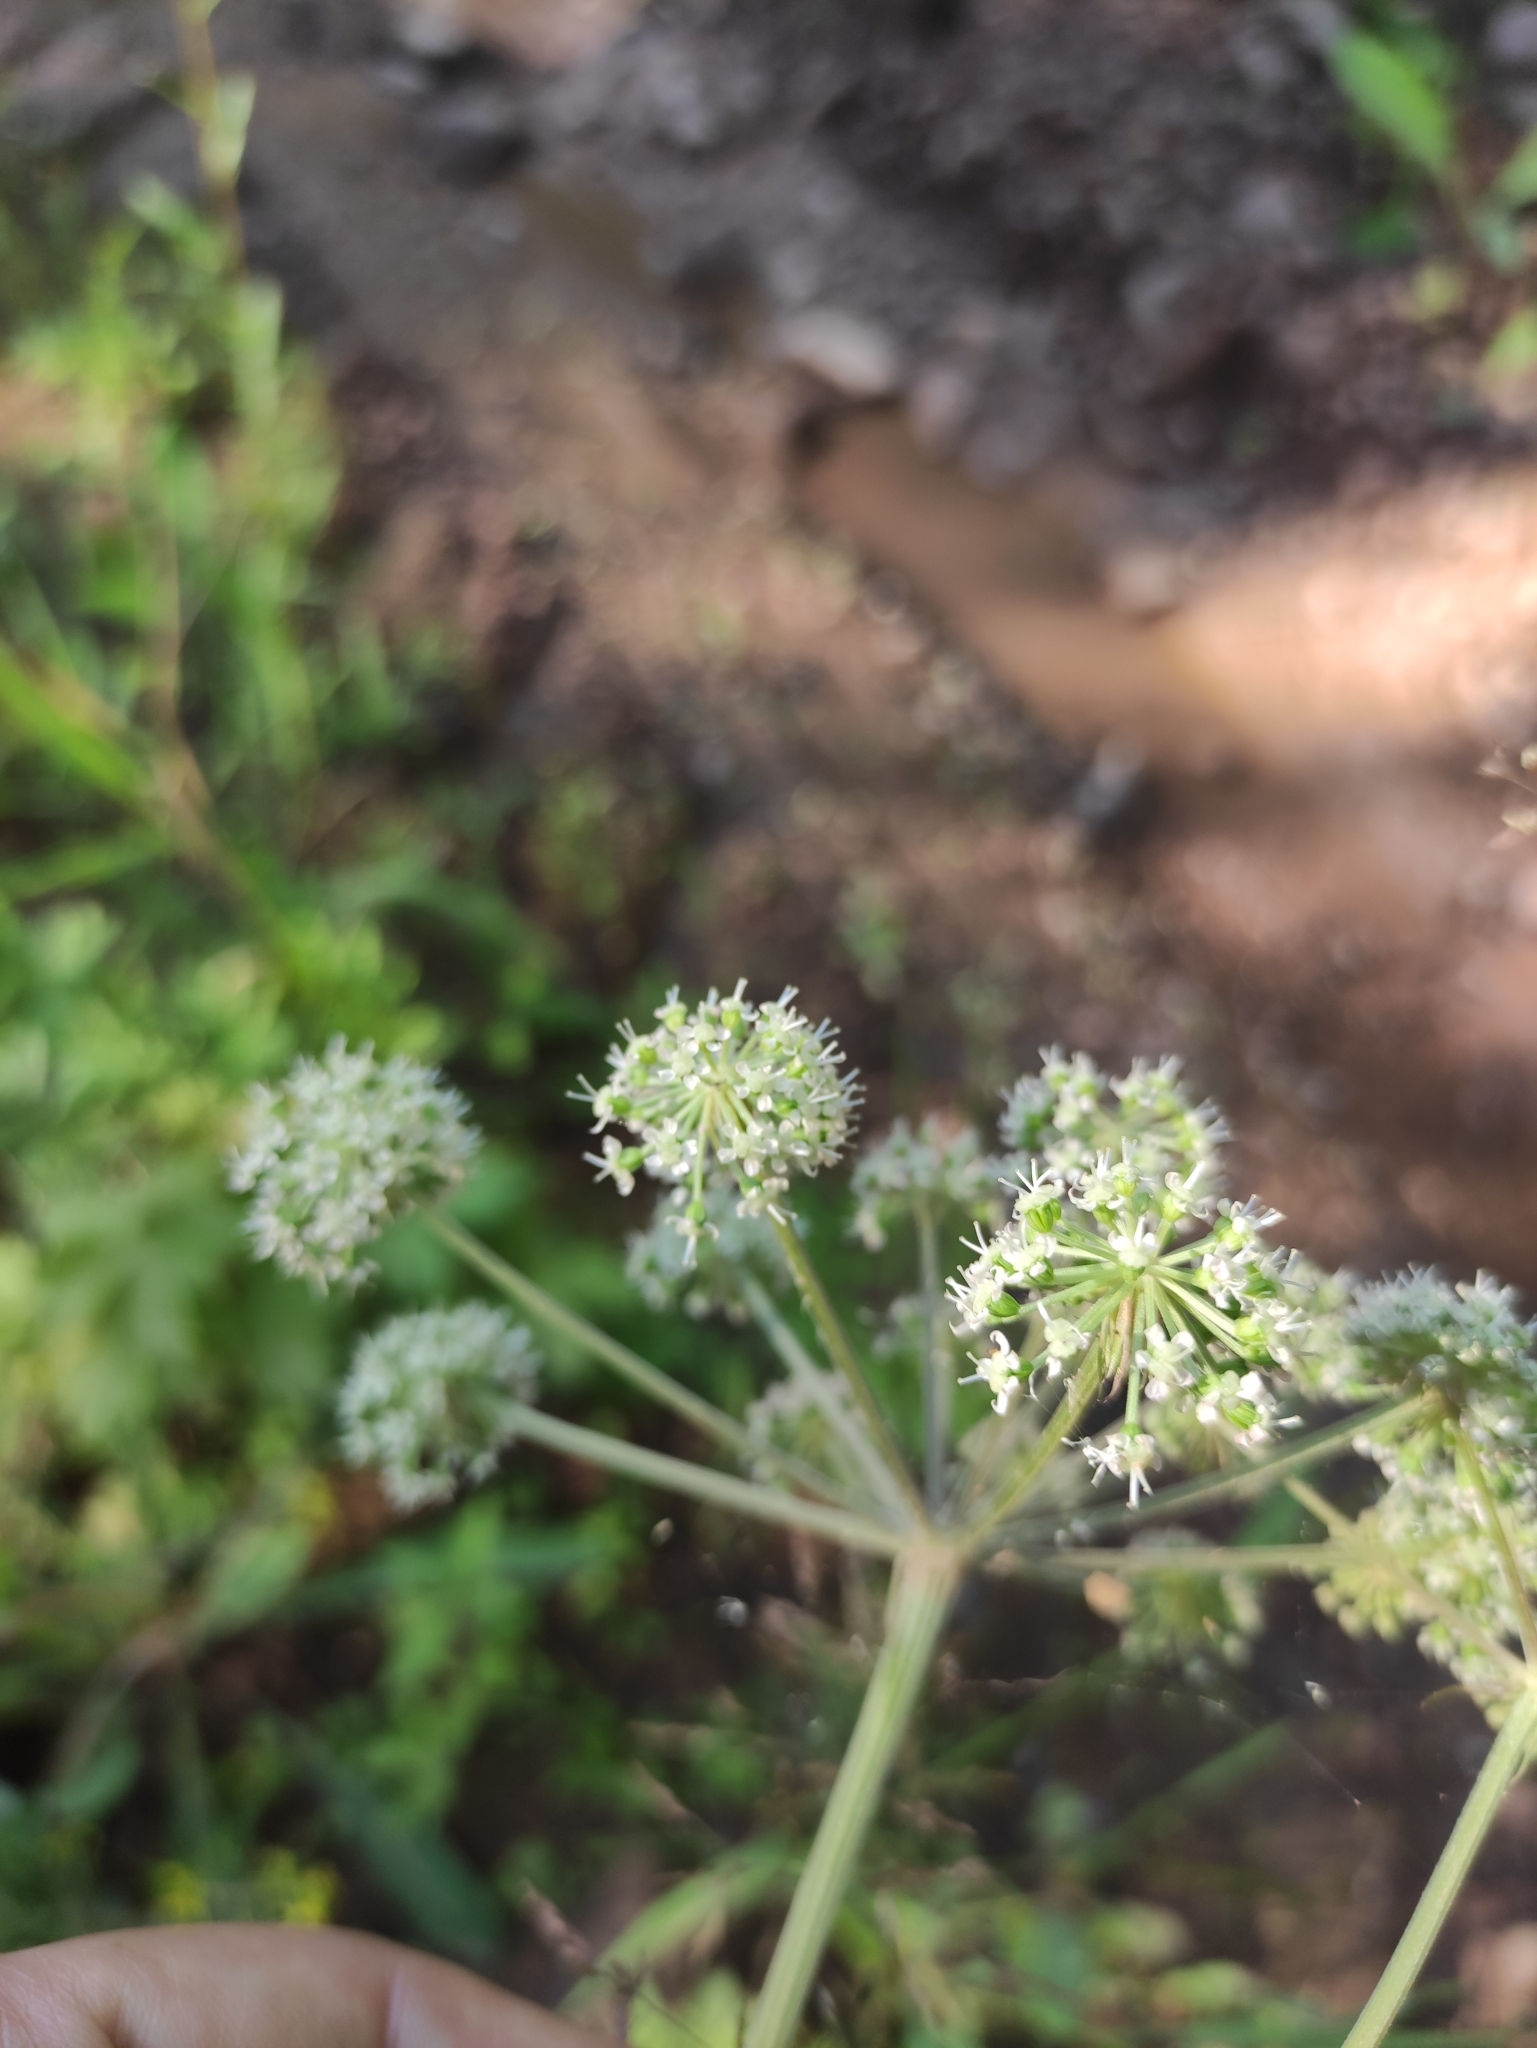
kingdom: Plantae
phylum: Tracheophyta
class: Magnoliopsida
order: Apiales
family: Apiaceae
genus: Angelica
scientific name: Angelica sylvestris
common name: Wild angelica
